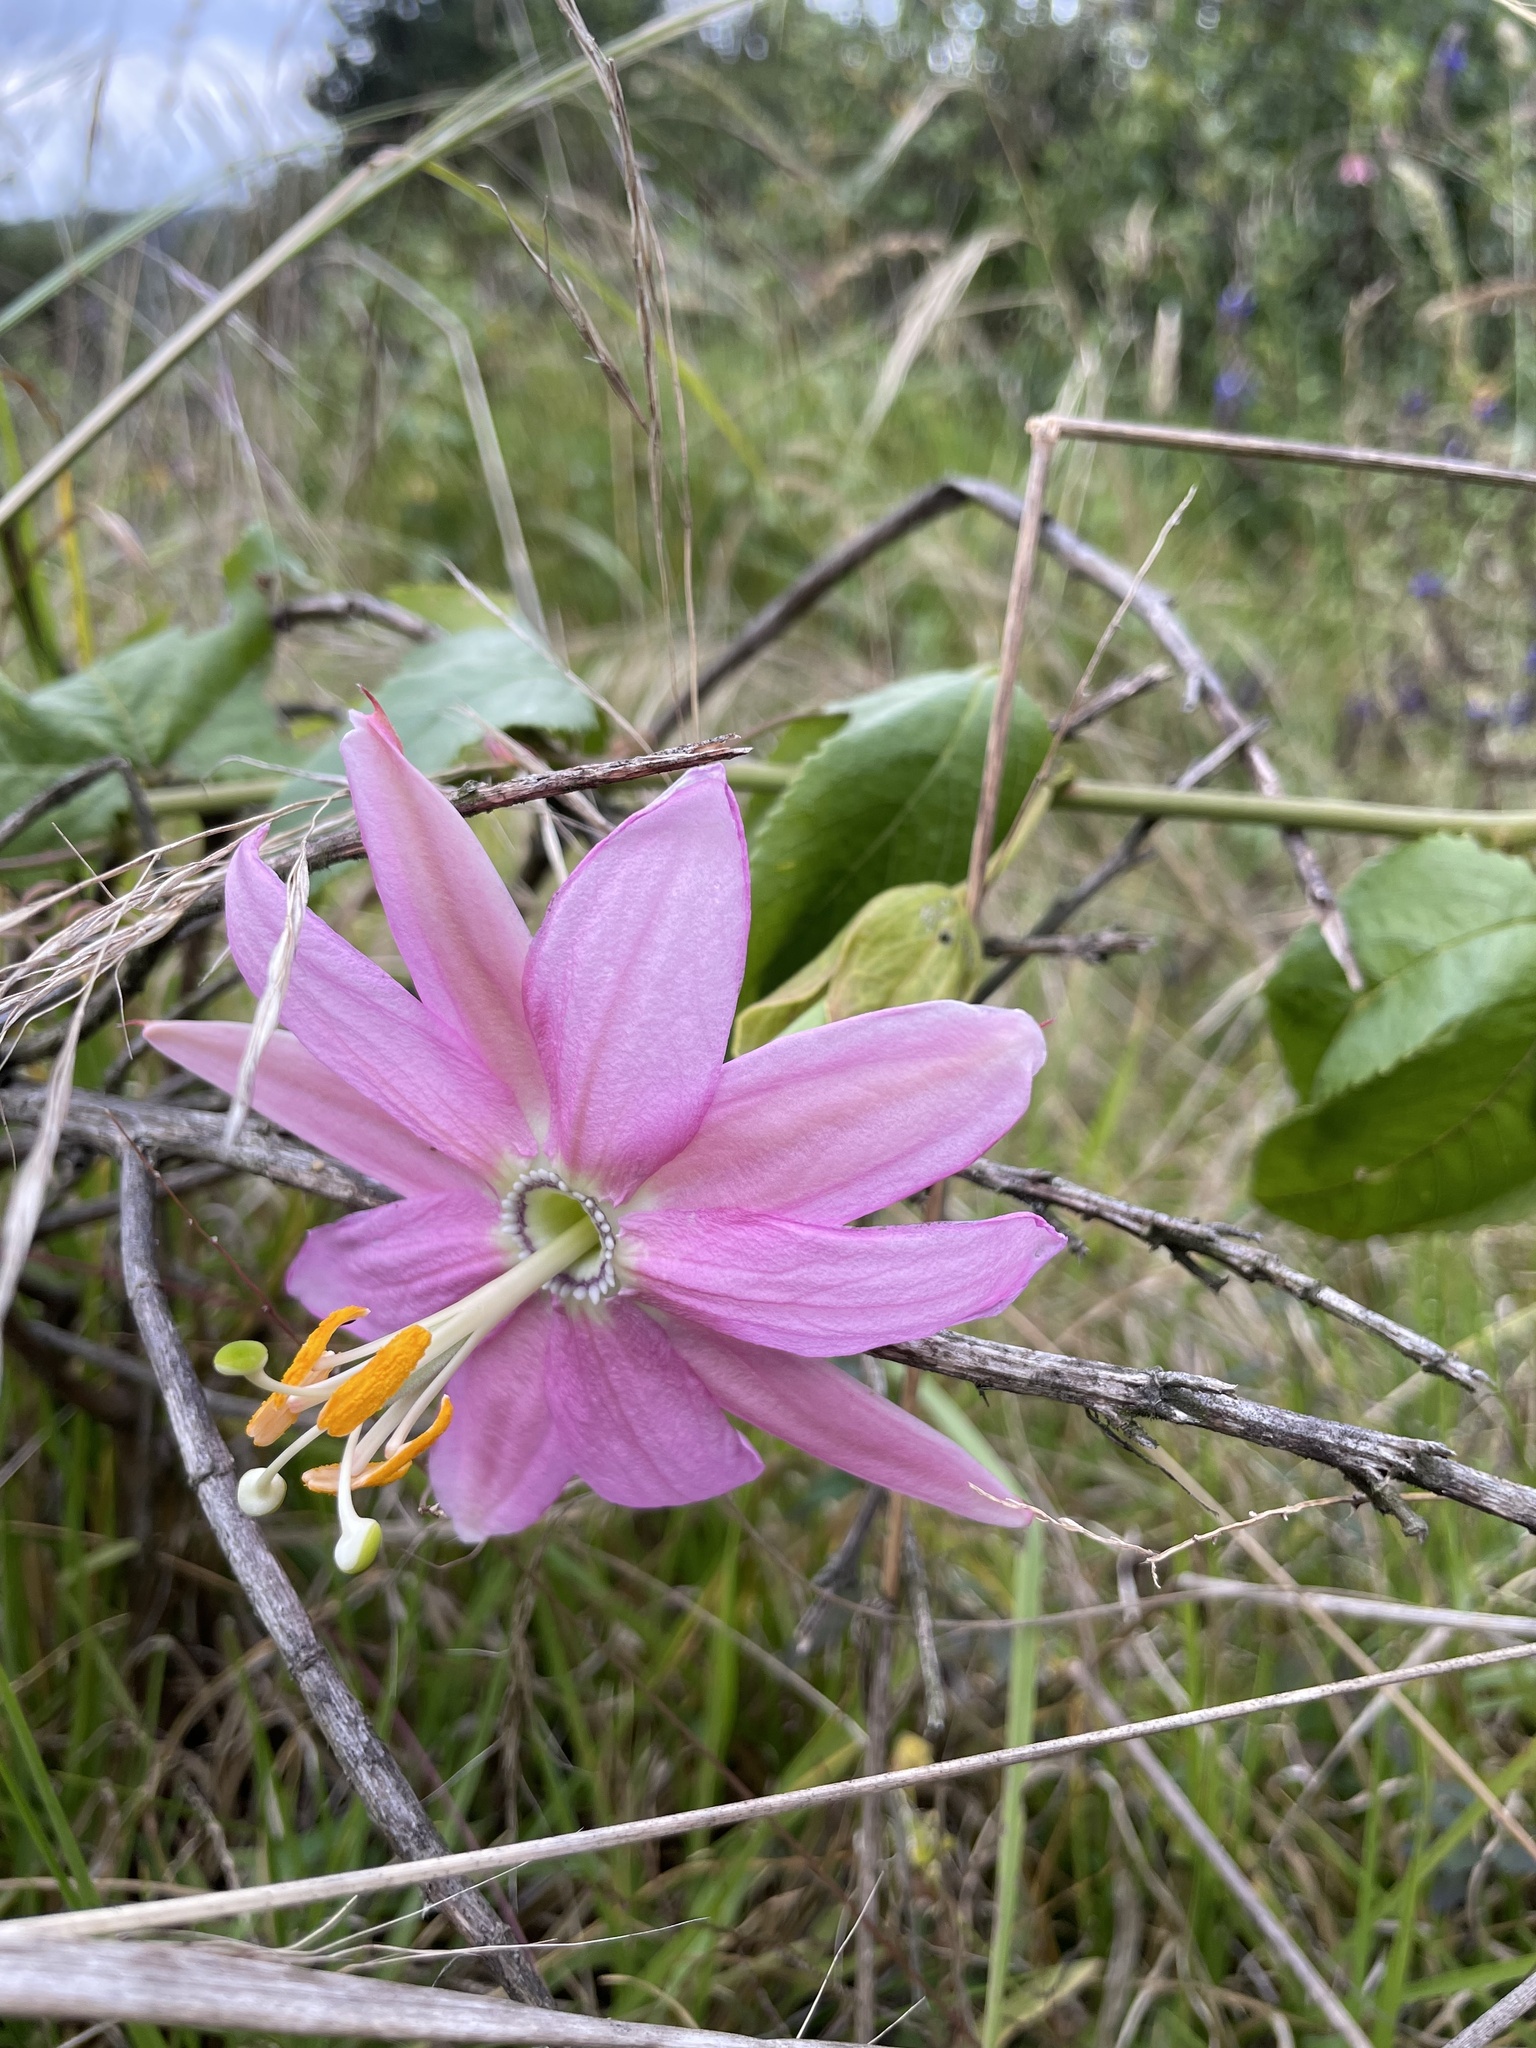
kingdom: Plantae
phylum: Tracheophyta
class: Magnoliopsida
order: Malpighiales
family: Passifloraceae
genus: Passiflora
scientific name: Passiflora tarminiana
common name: Banana poka
